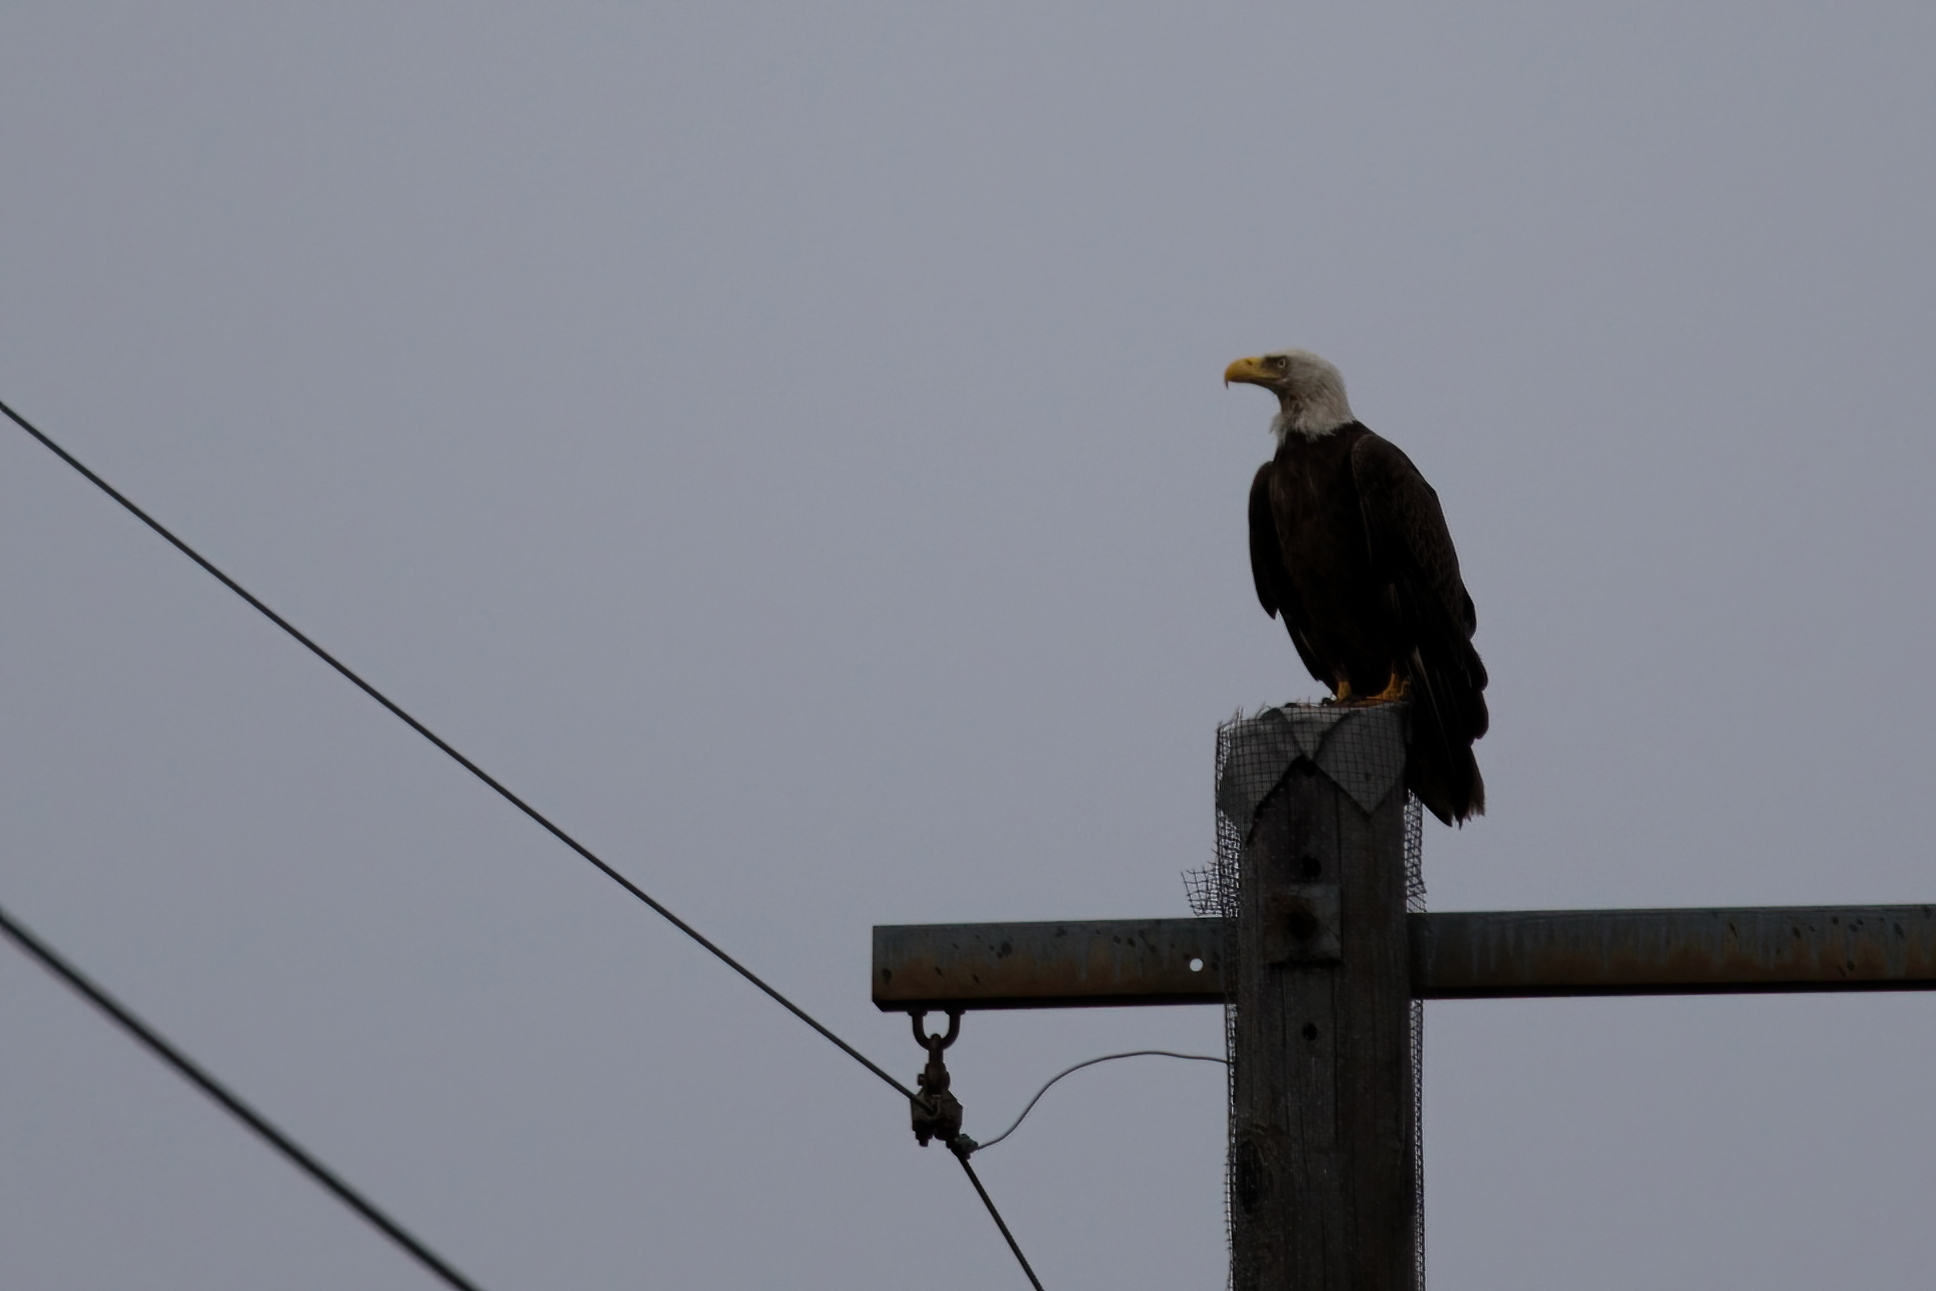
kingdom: Animalia
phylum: Chordata
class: Aves
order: Accipitriformes
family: Accipitridae
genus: Haliaeetus
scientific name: Haliaeetus leucocephalus
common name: Bald eagle
